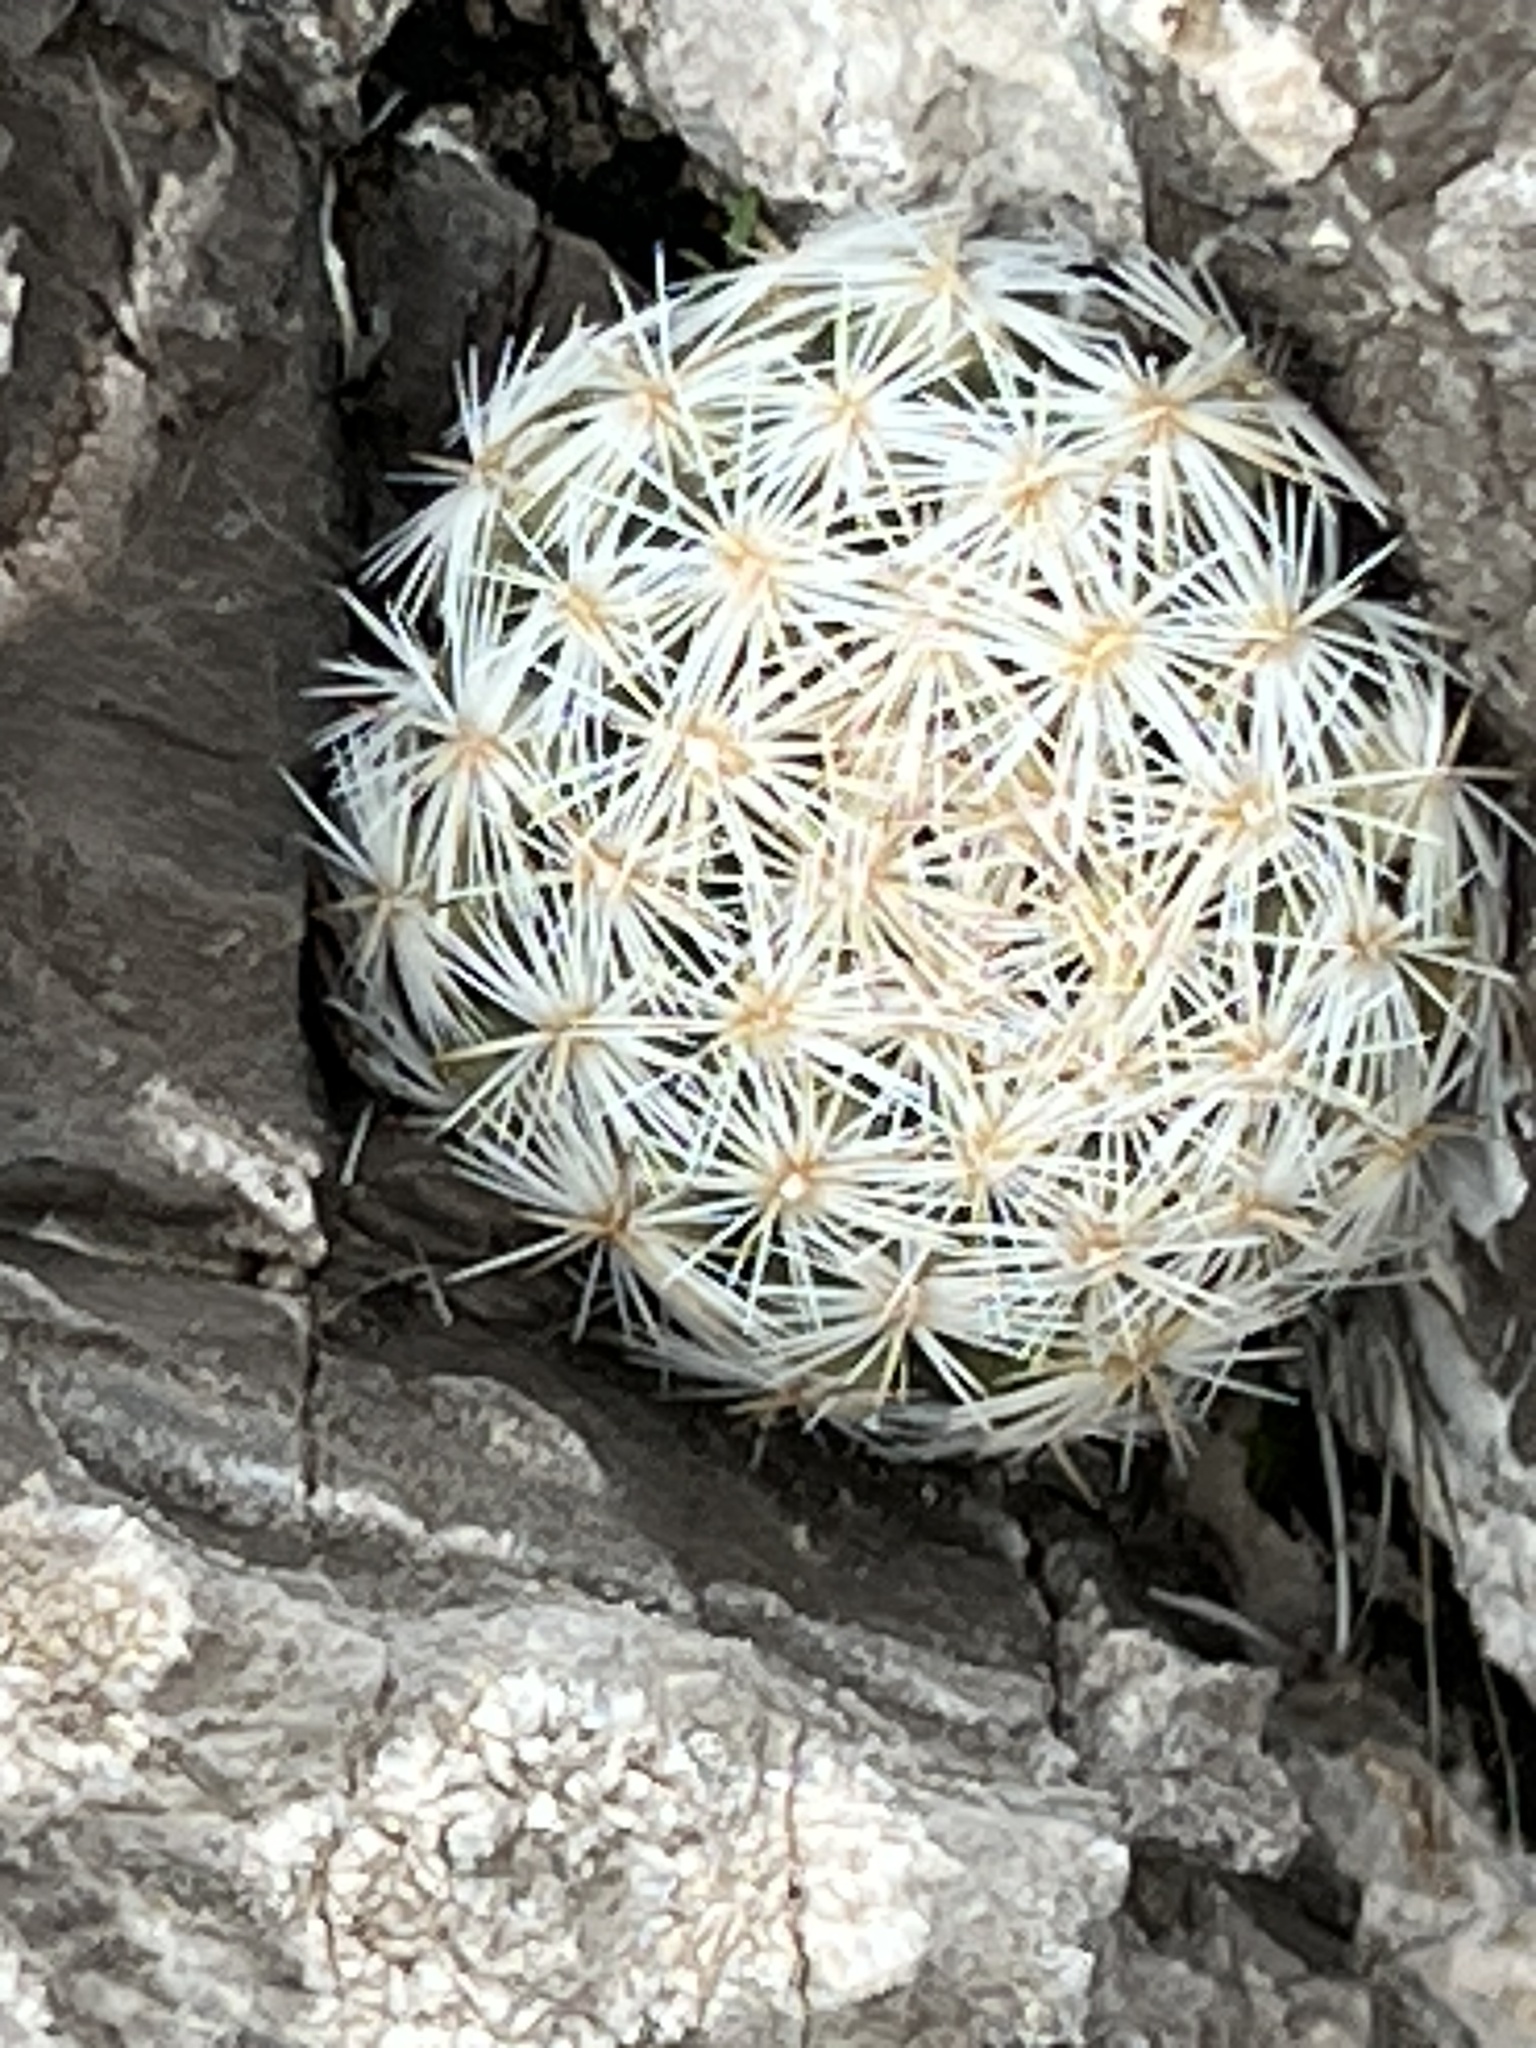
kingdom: Plantae
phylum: Tracheophyta
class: Magnoliopsida
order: Caryophyllales
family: Cactaceae
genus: Pelecyphora
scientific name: Pelecyphora dasyacantha
